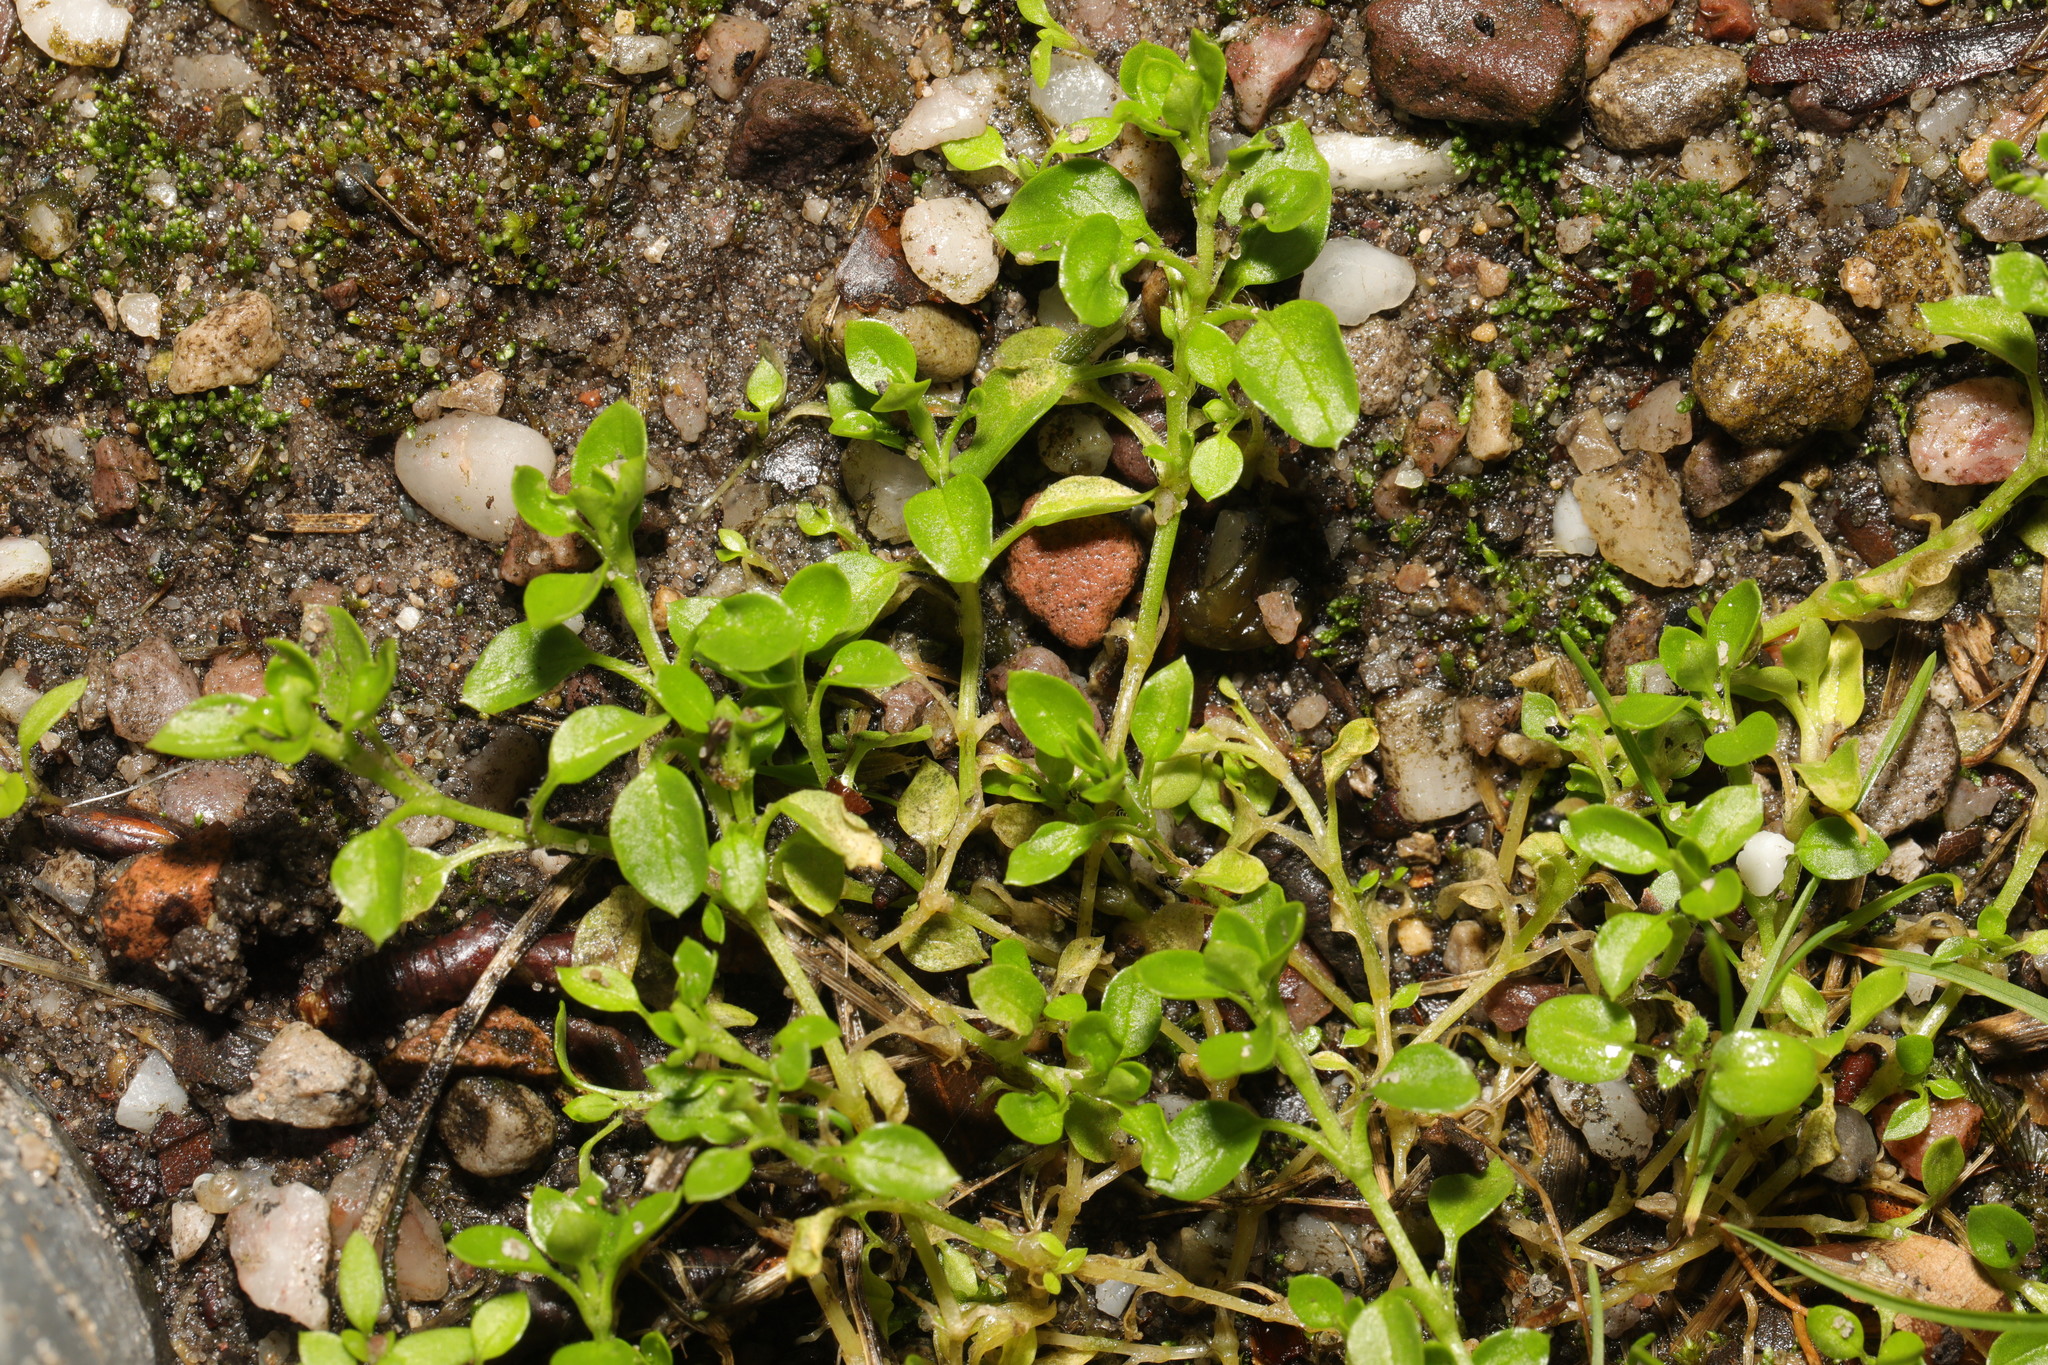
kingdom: Plantae
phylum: Tracheophyta
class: Magnoliopsida
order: Caryophyllales
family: Caryophyllaceae
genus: Stellaria
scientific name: Stellaria media
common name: Common chickweed
